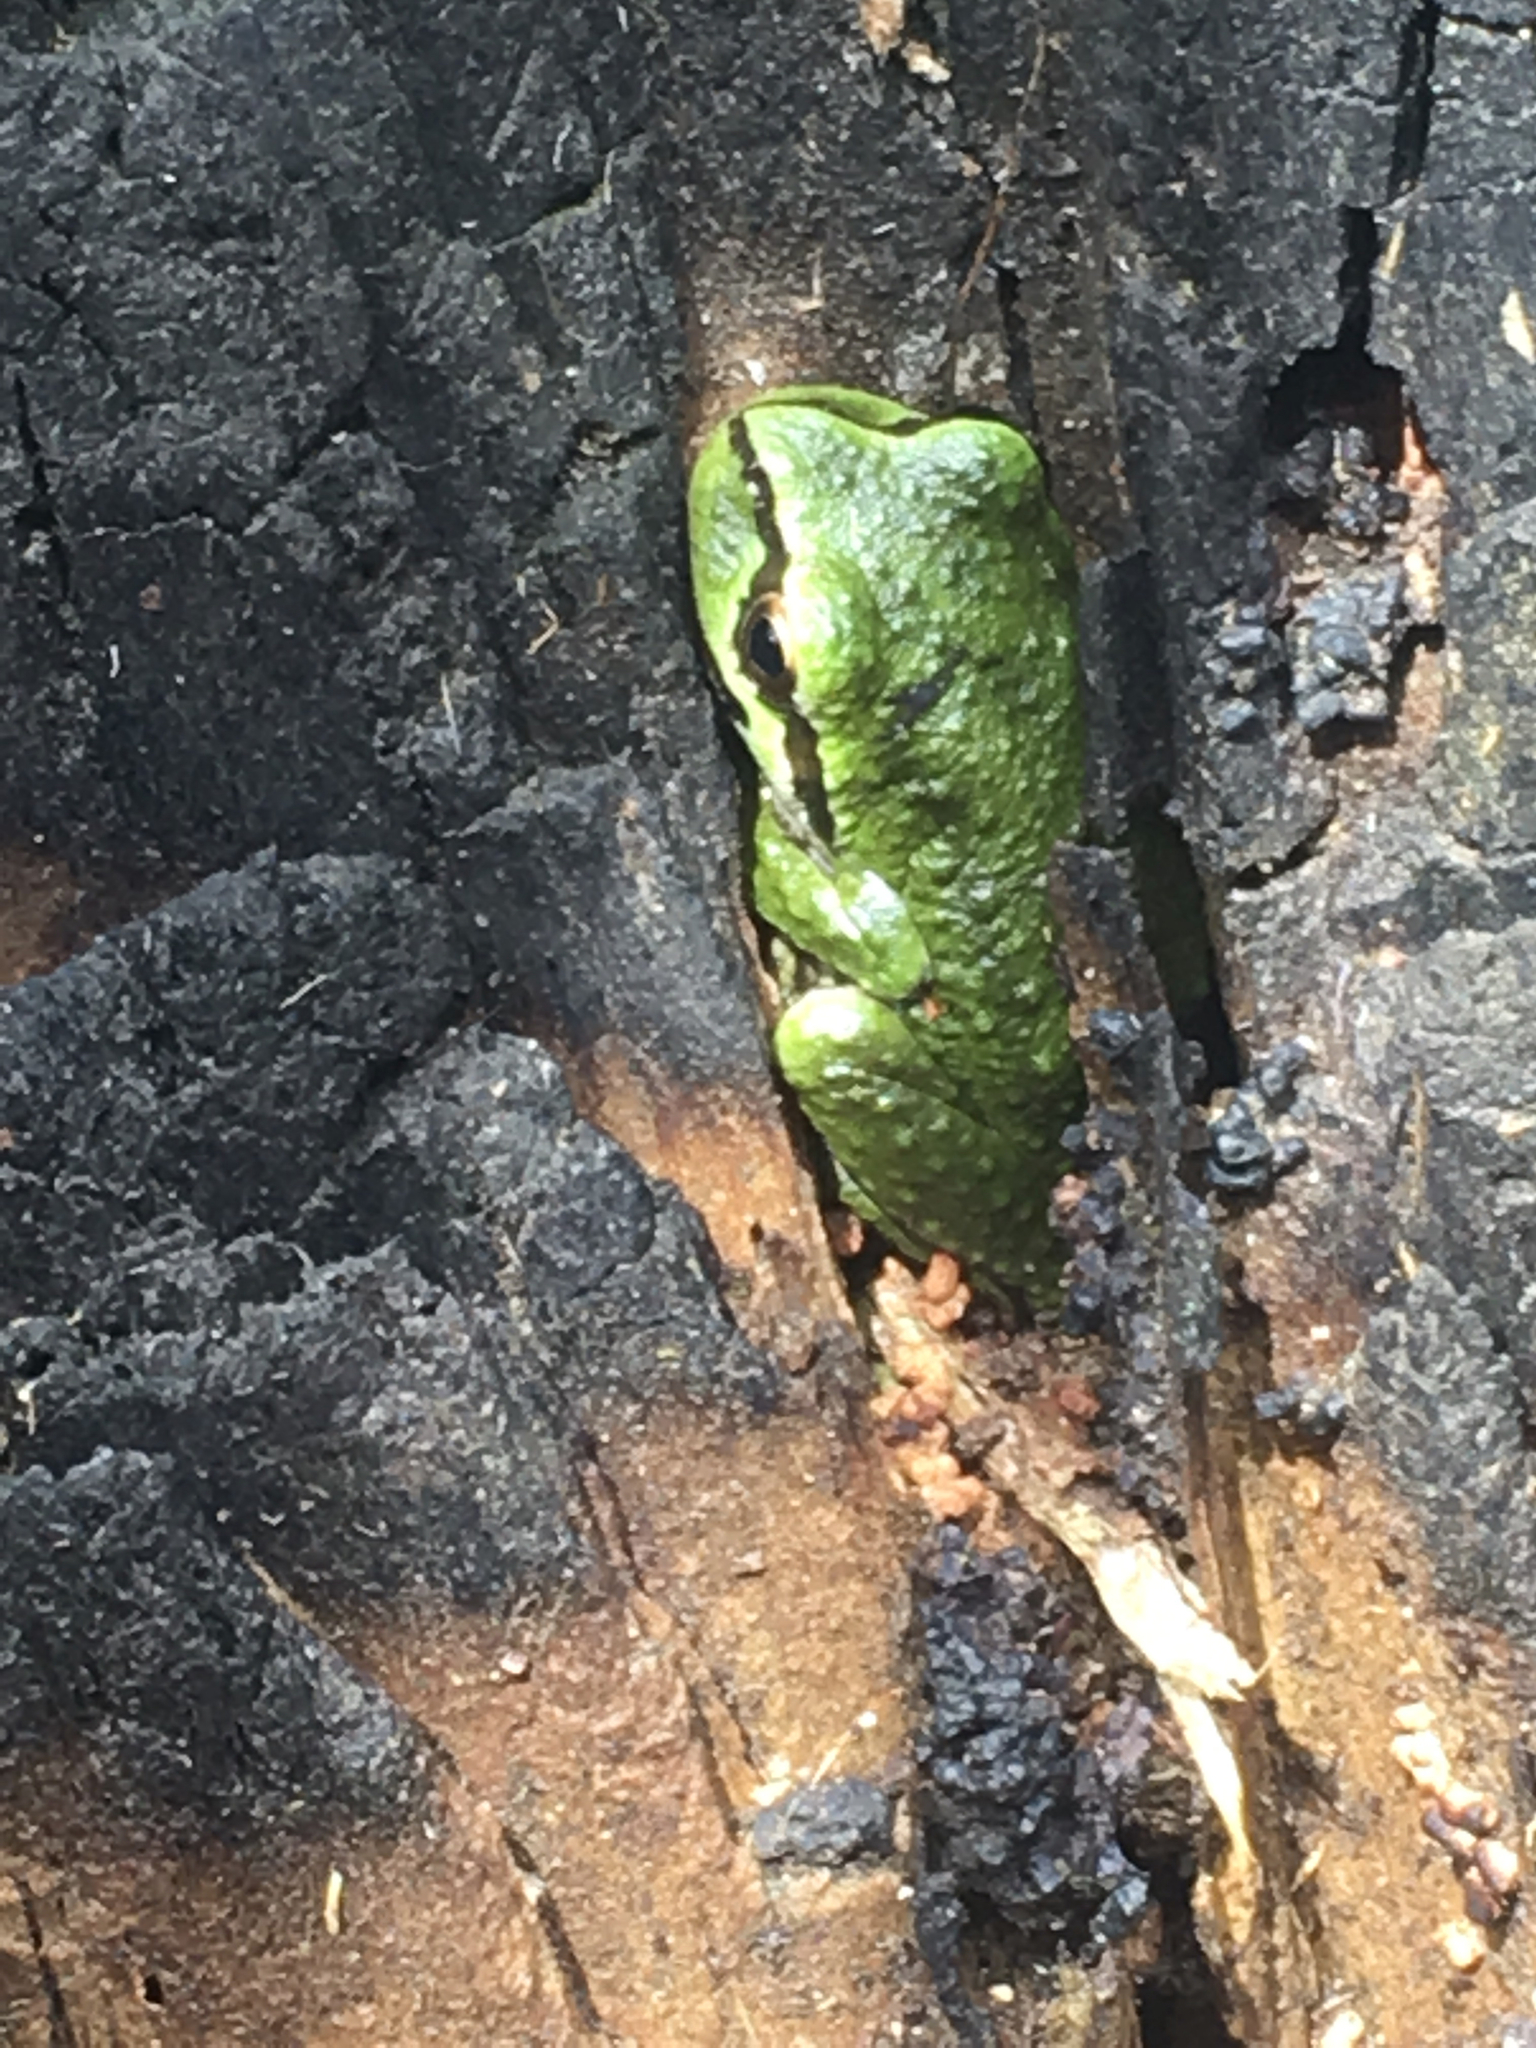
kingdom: Animalia
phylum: Chordata
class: Amphibia
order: Anura
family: Hylidae
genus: Pseudacris
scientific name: Pseudacris regilla
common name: Pacific chorus frog
